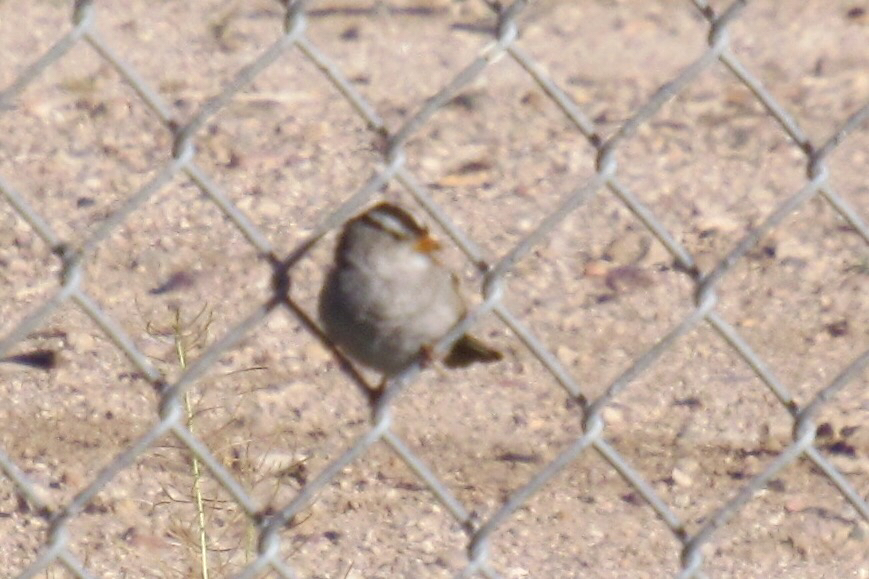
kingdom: Animalia
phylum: Chordata
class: Aves
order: Passeriformes
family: Passerellidae
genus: Zonotrichia
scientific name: Zonotrichia leucophrys
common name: White-crowned sparrow
